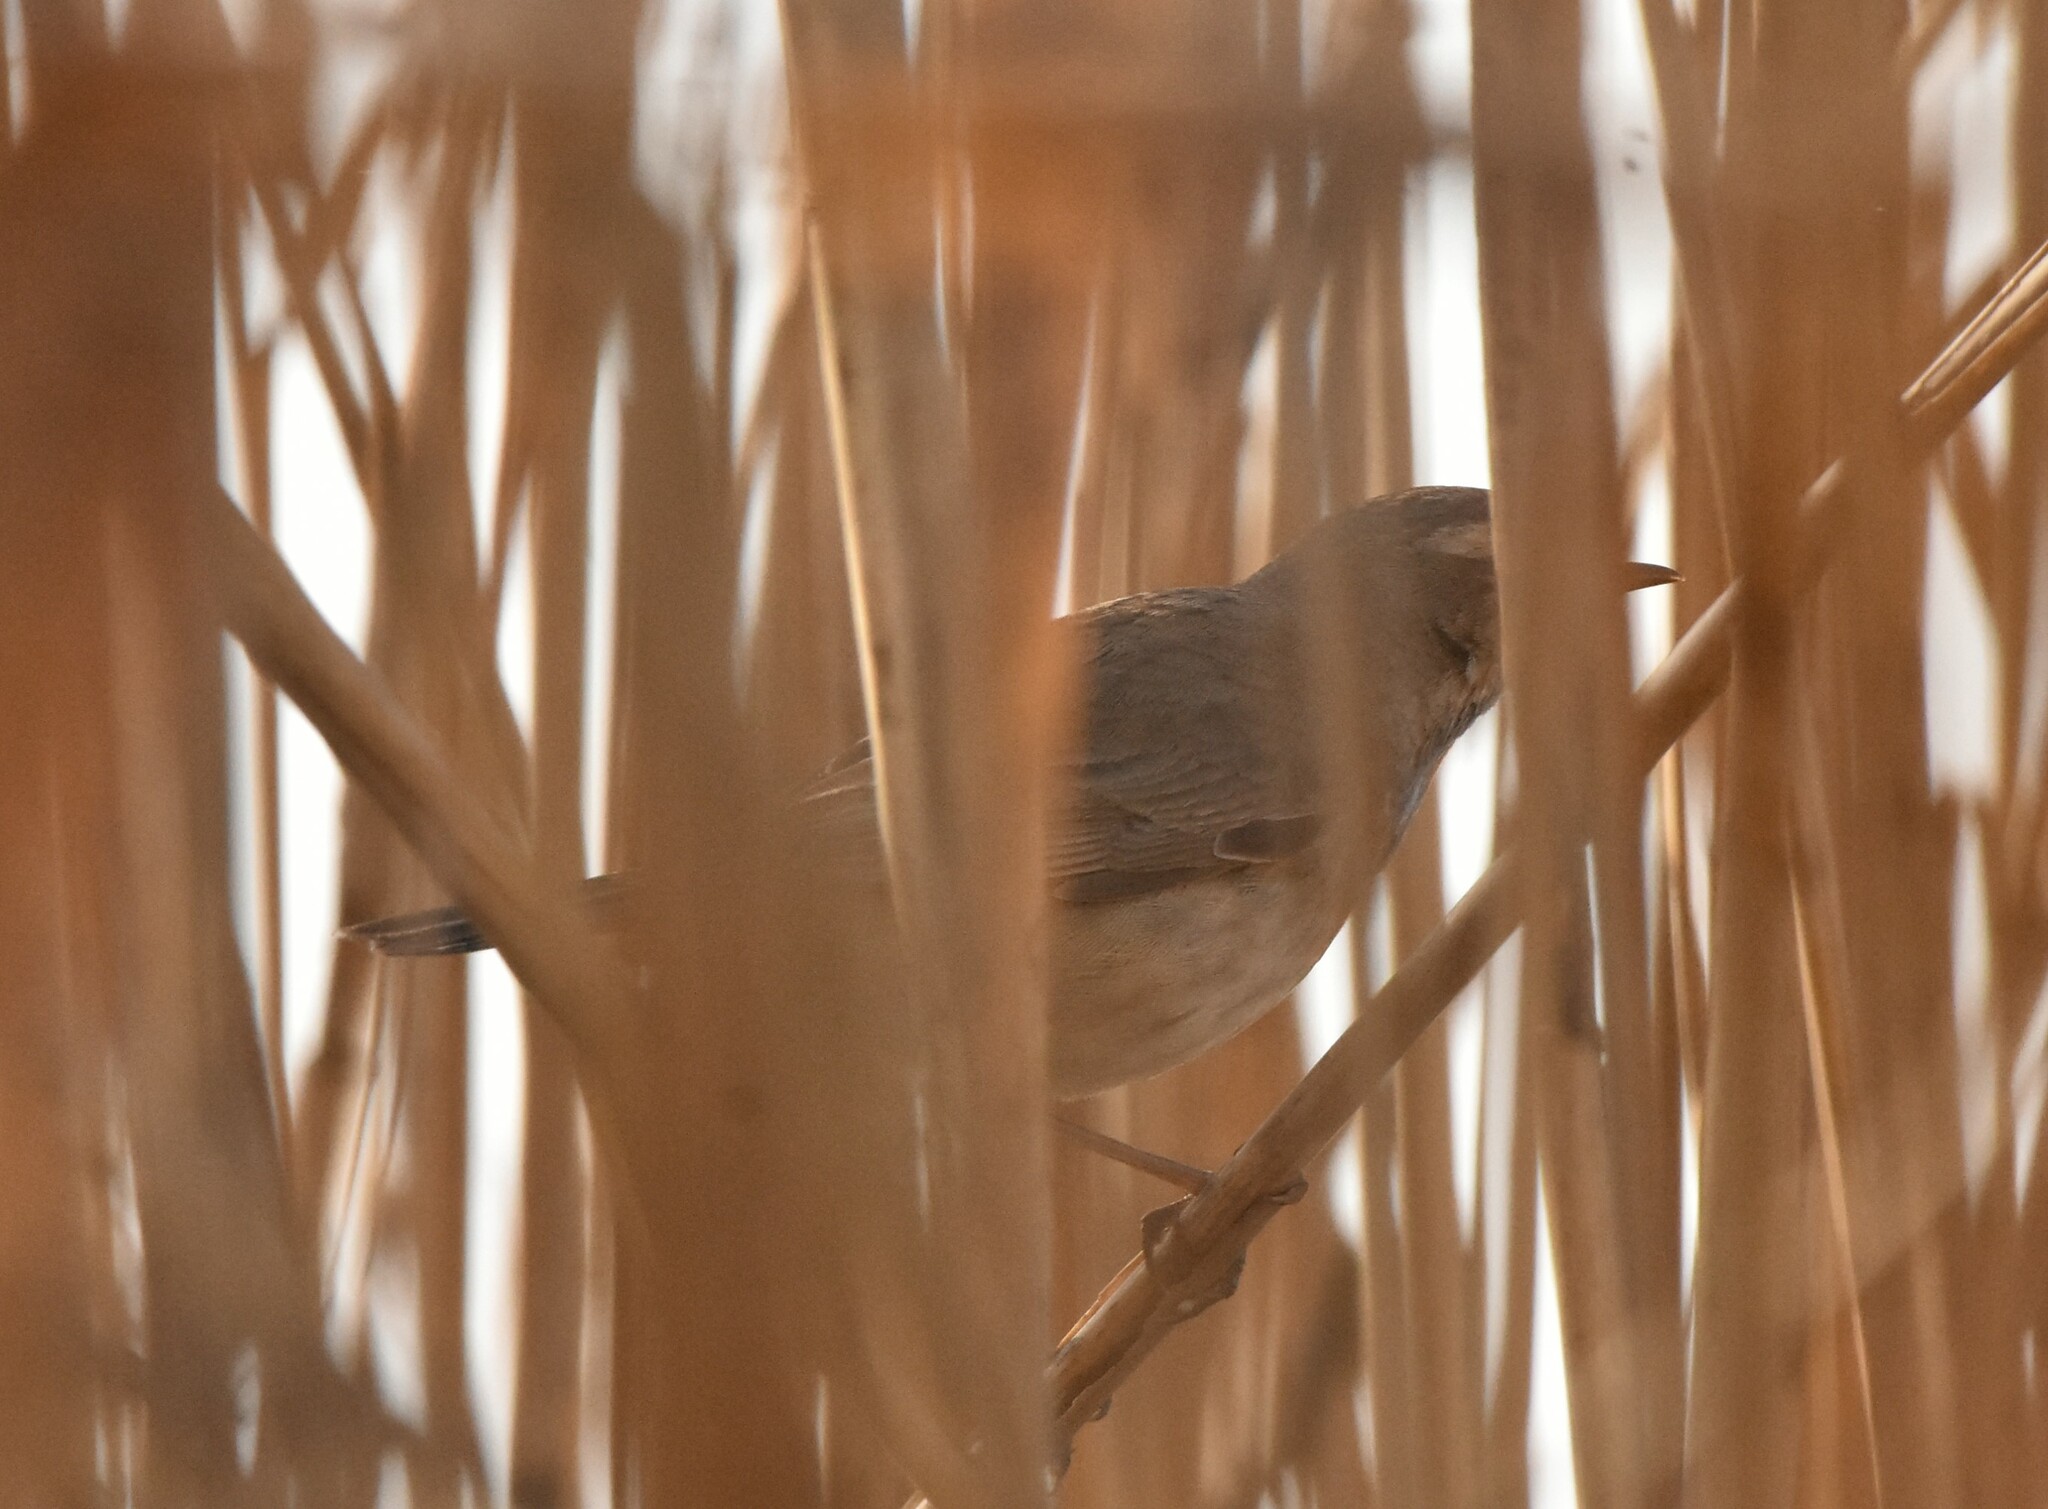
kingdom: Animalia
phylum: Chordata
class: Aves
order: Passeriformes
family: Muscicapidae
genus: Luscinia
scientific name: Luscinia svecica
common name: Bluethroat
